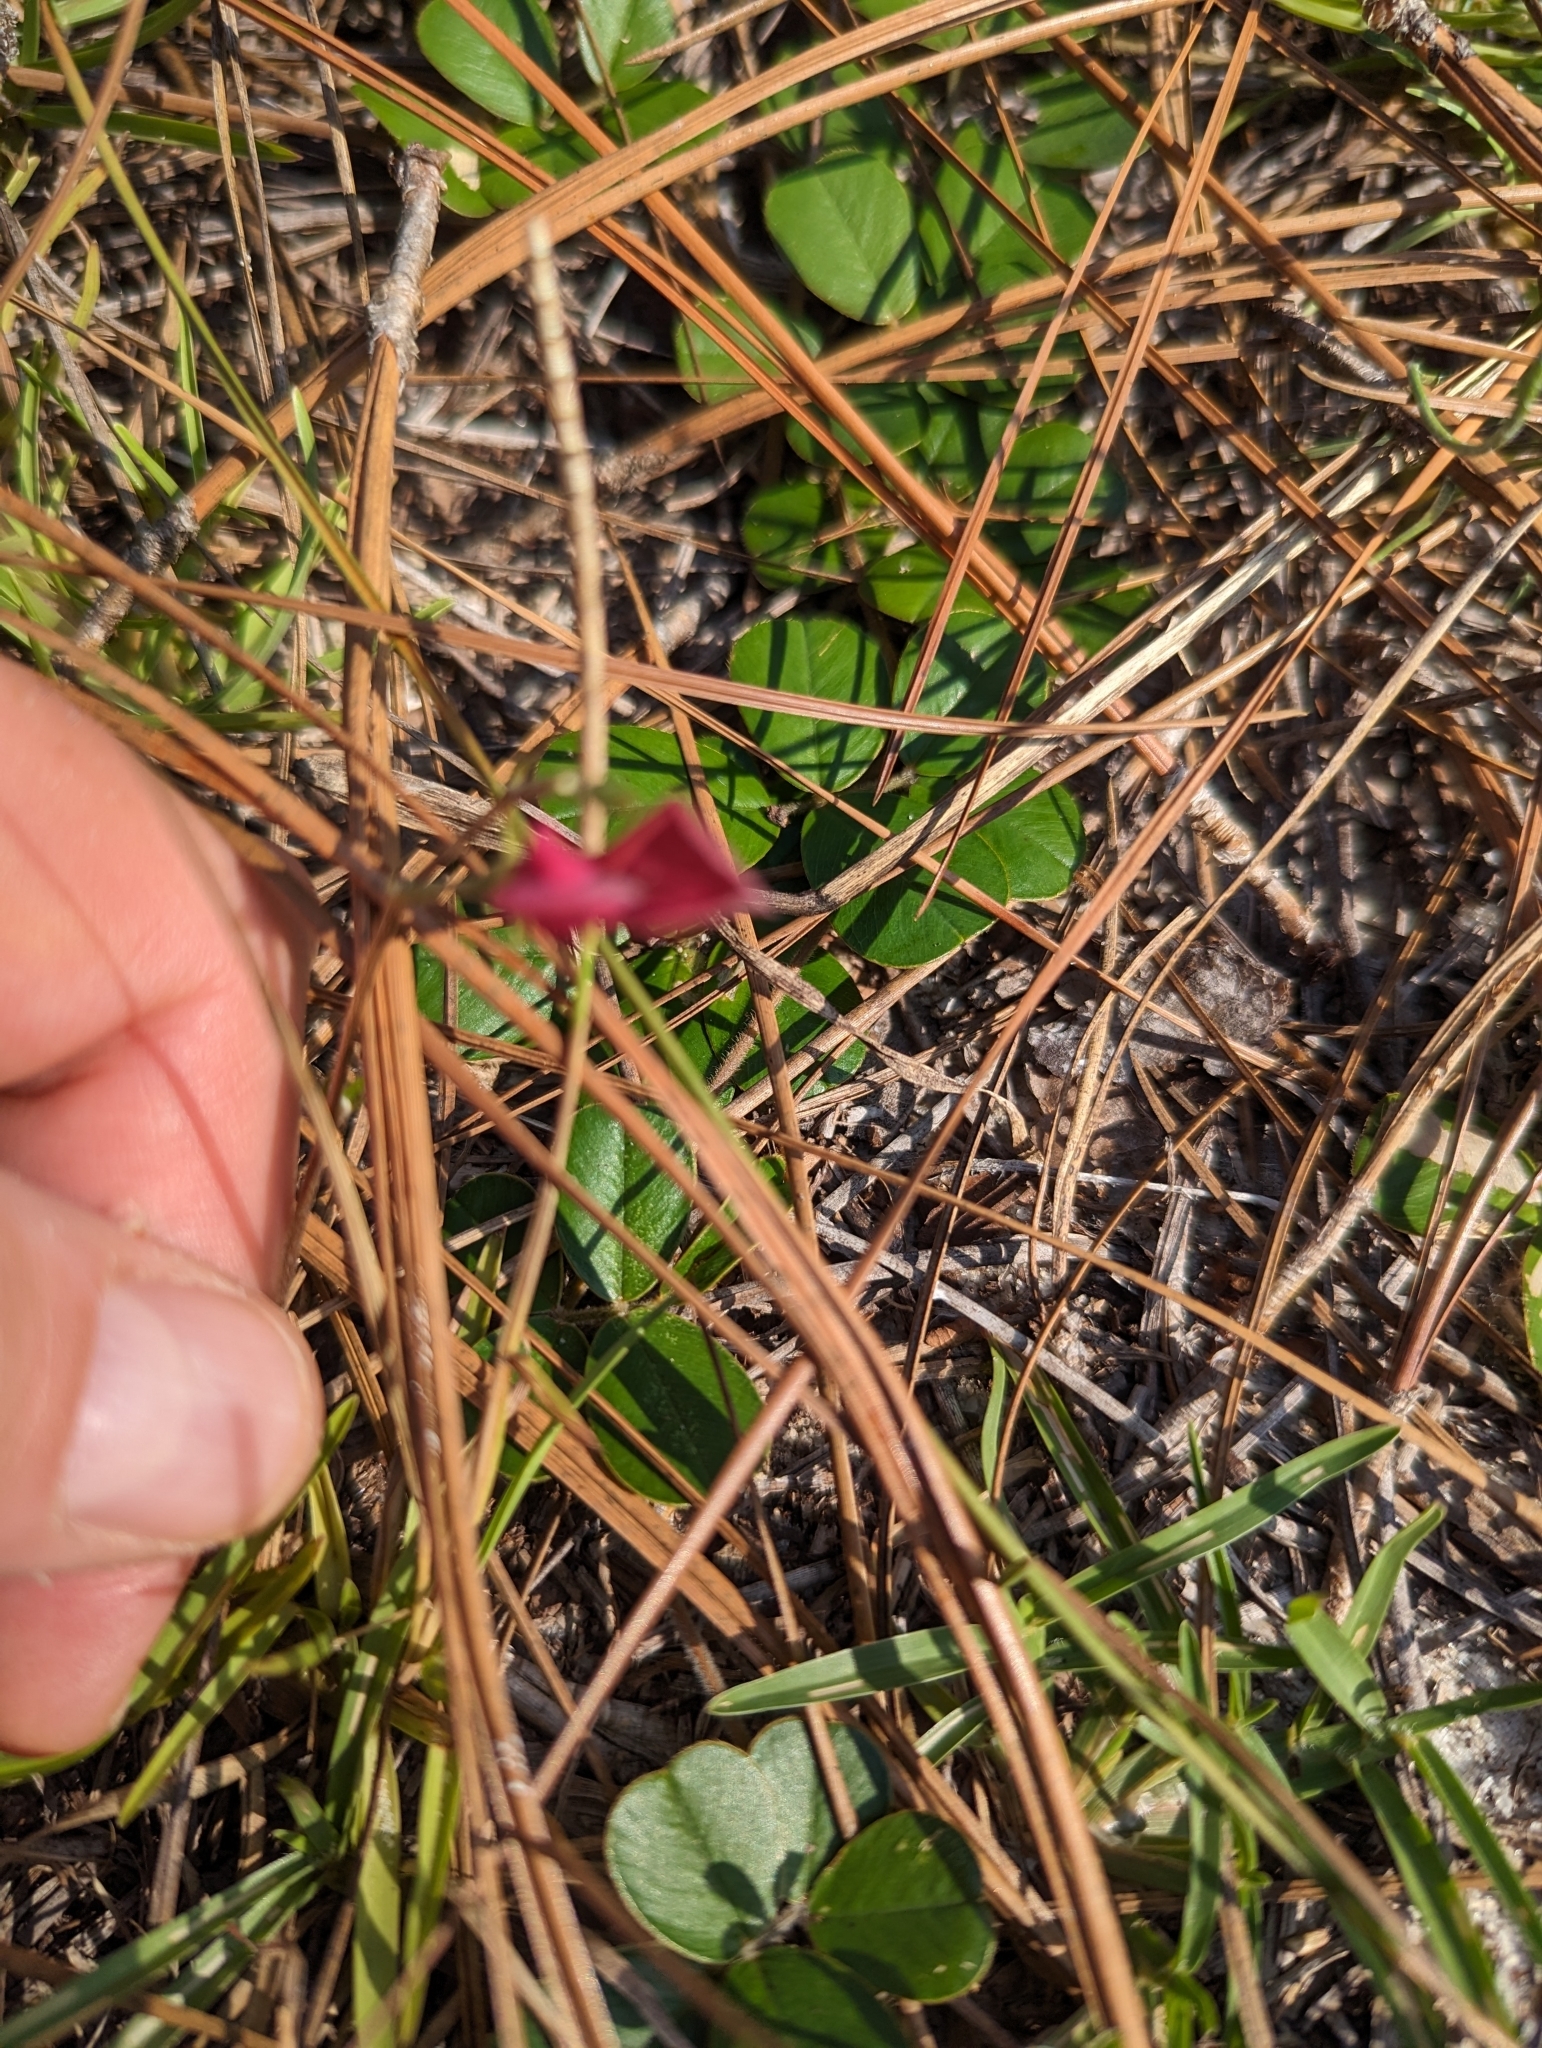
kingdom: Plantae
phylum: Tracheophyta
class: Magnoliopsida
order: Fabales
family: Fabaceae
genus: Tephrosia
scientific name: Tephrosia chrysophylla
